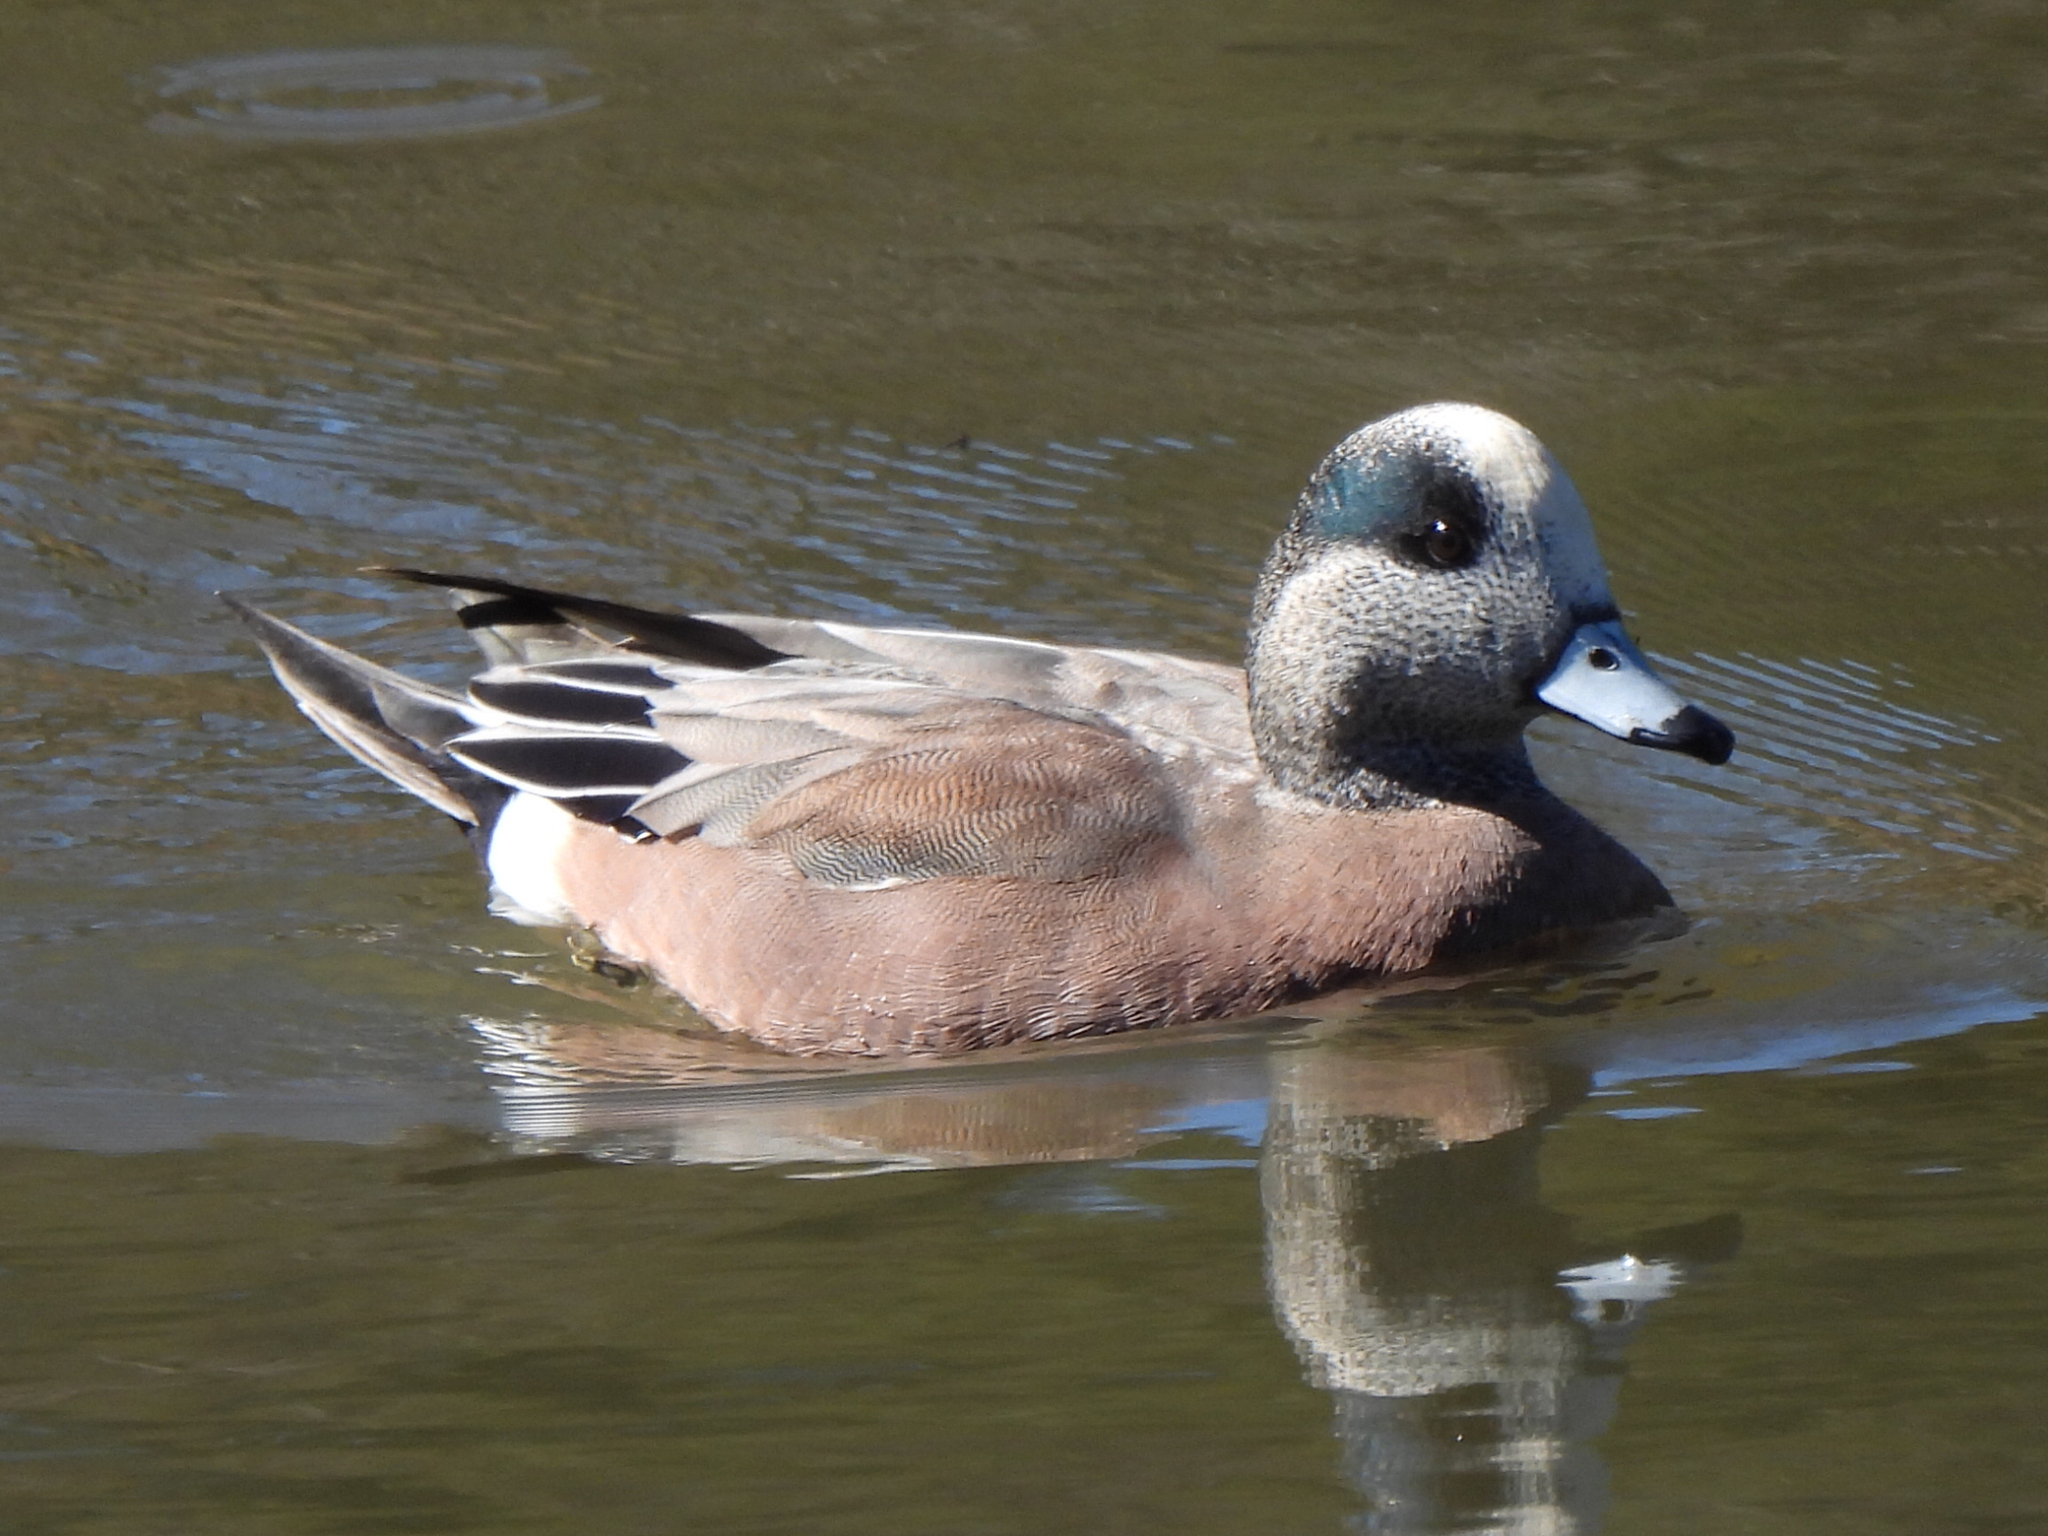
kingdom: Animalia
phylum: Chordata
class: Aves
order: Anseriformes
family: Anatidae
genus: Mareca
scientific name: Mareca americana
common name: American wigeon
